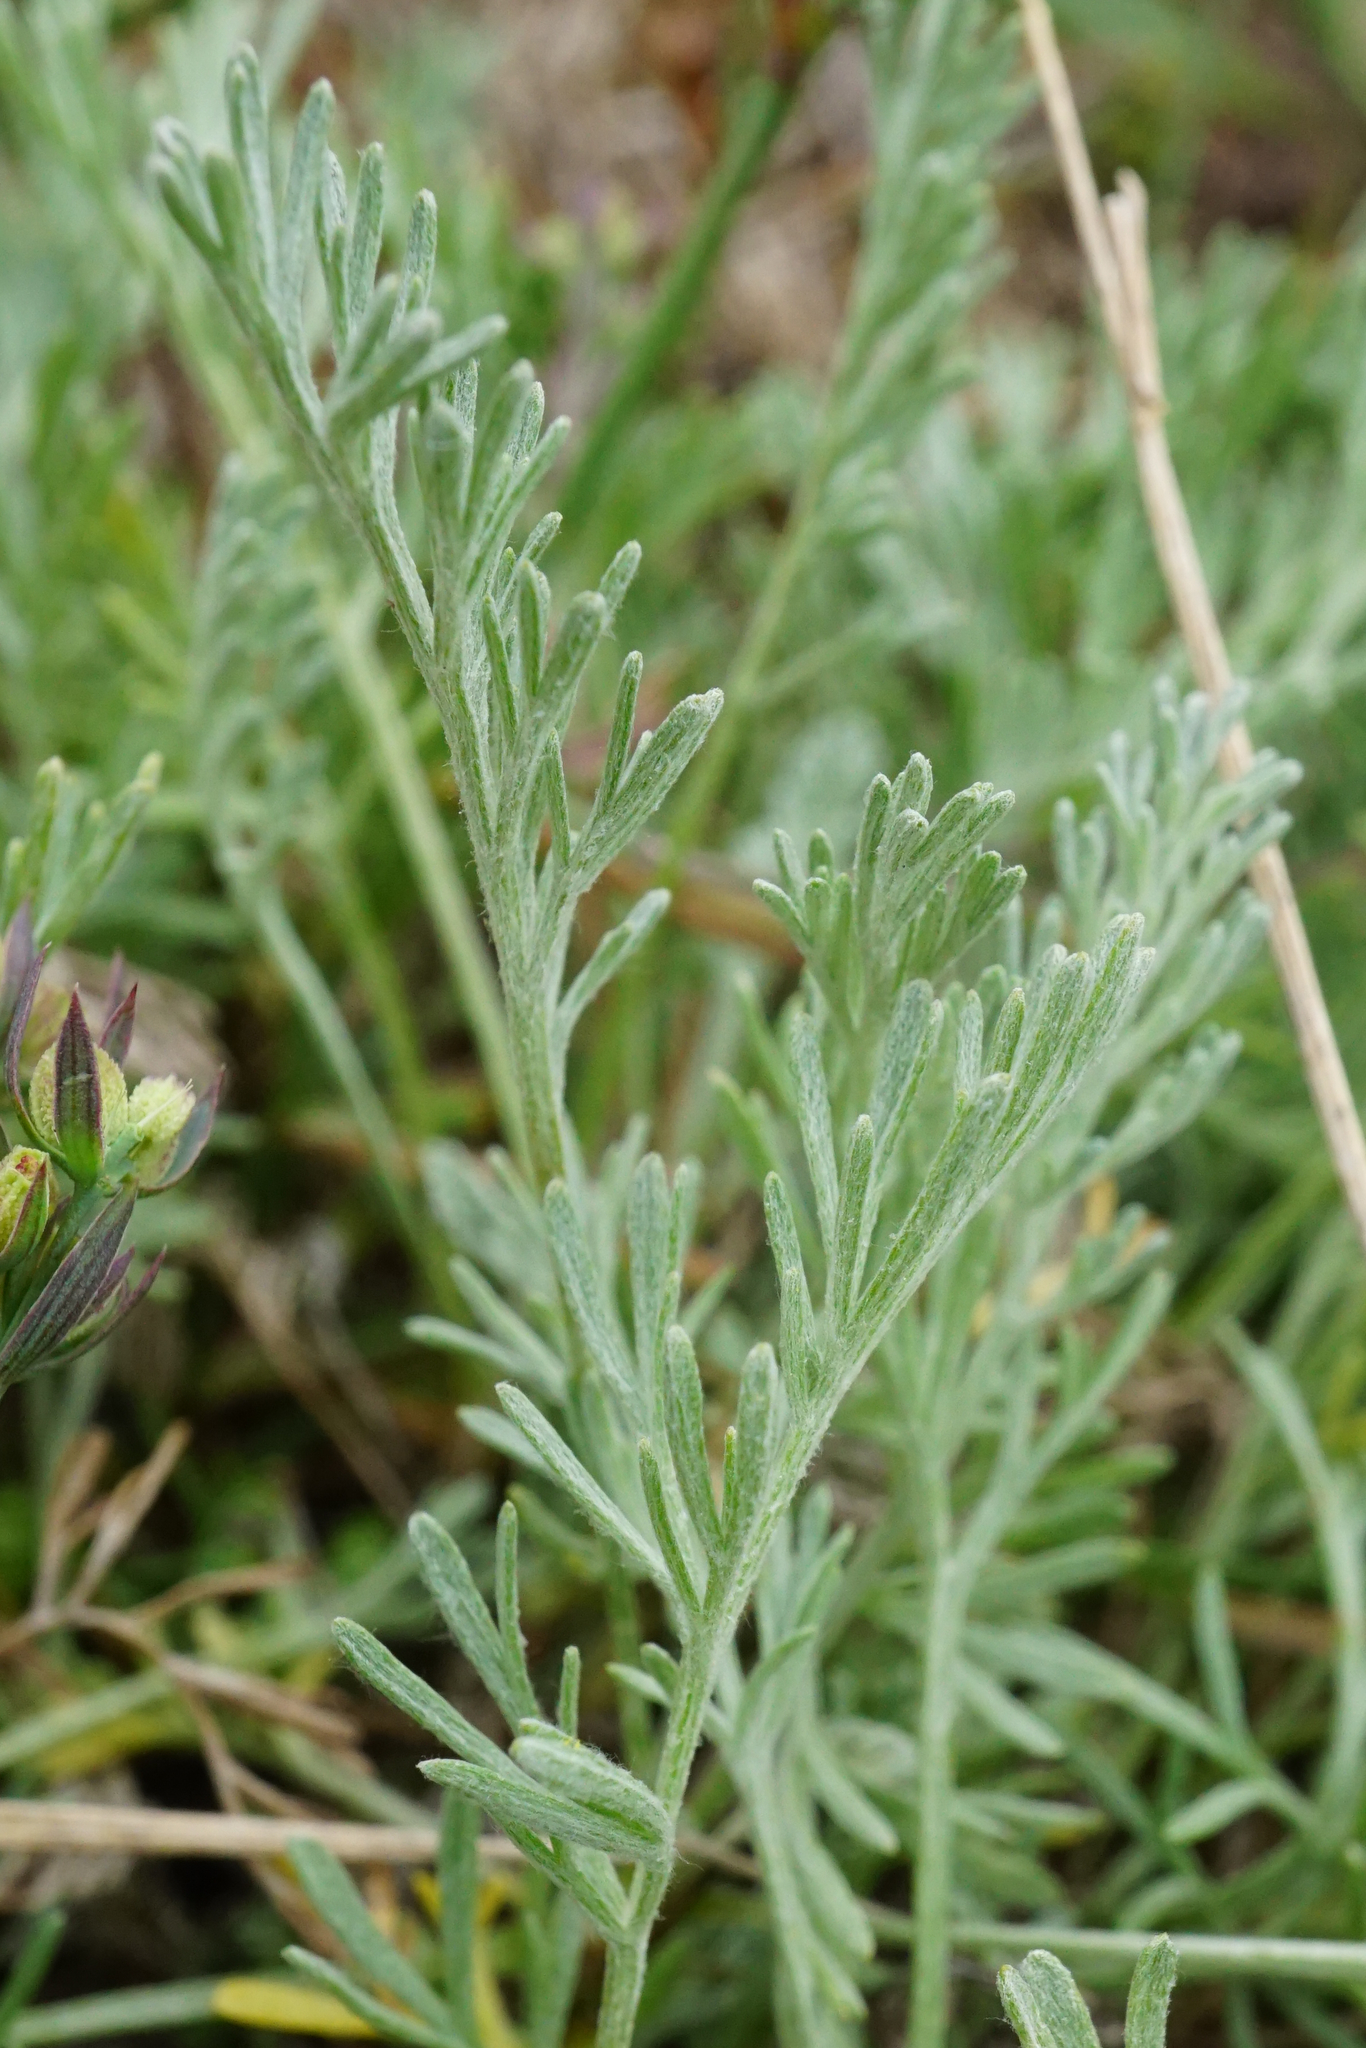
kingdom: Plantae
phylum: Tracheophyta
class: Magnoliopsida
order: Asterales
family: Asteraceae
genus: Artemisia
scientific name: Artemisia santonicum
